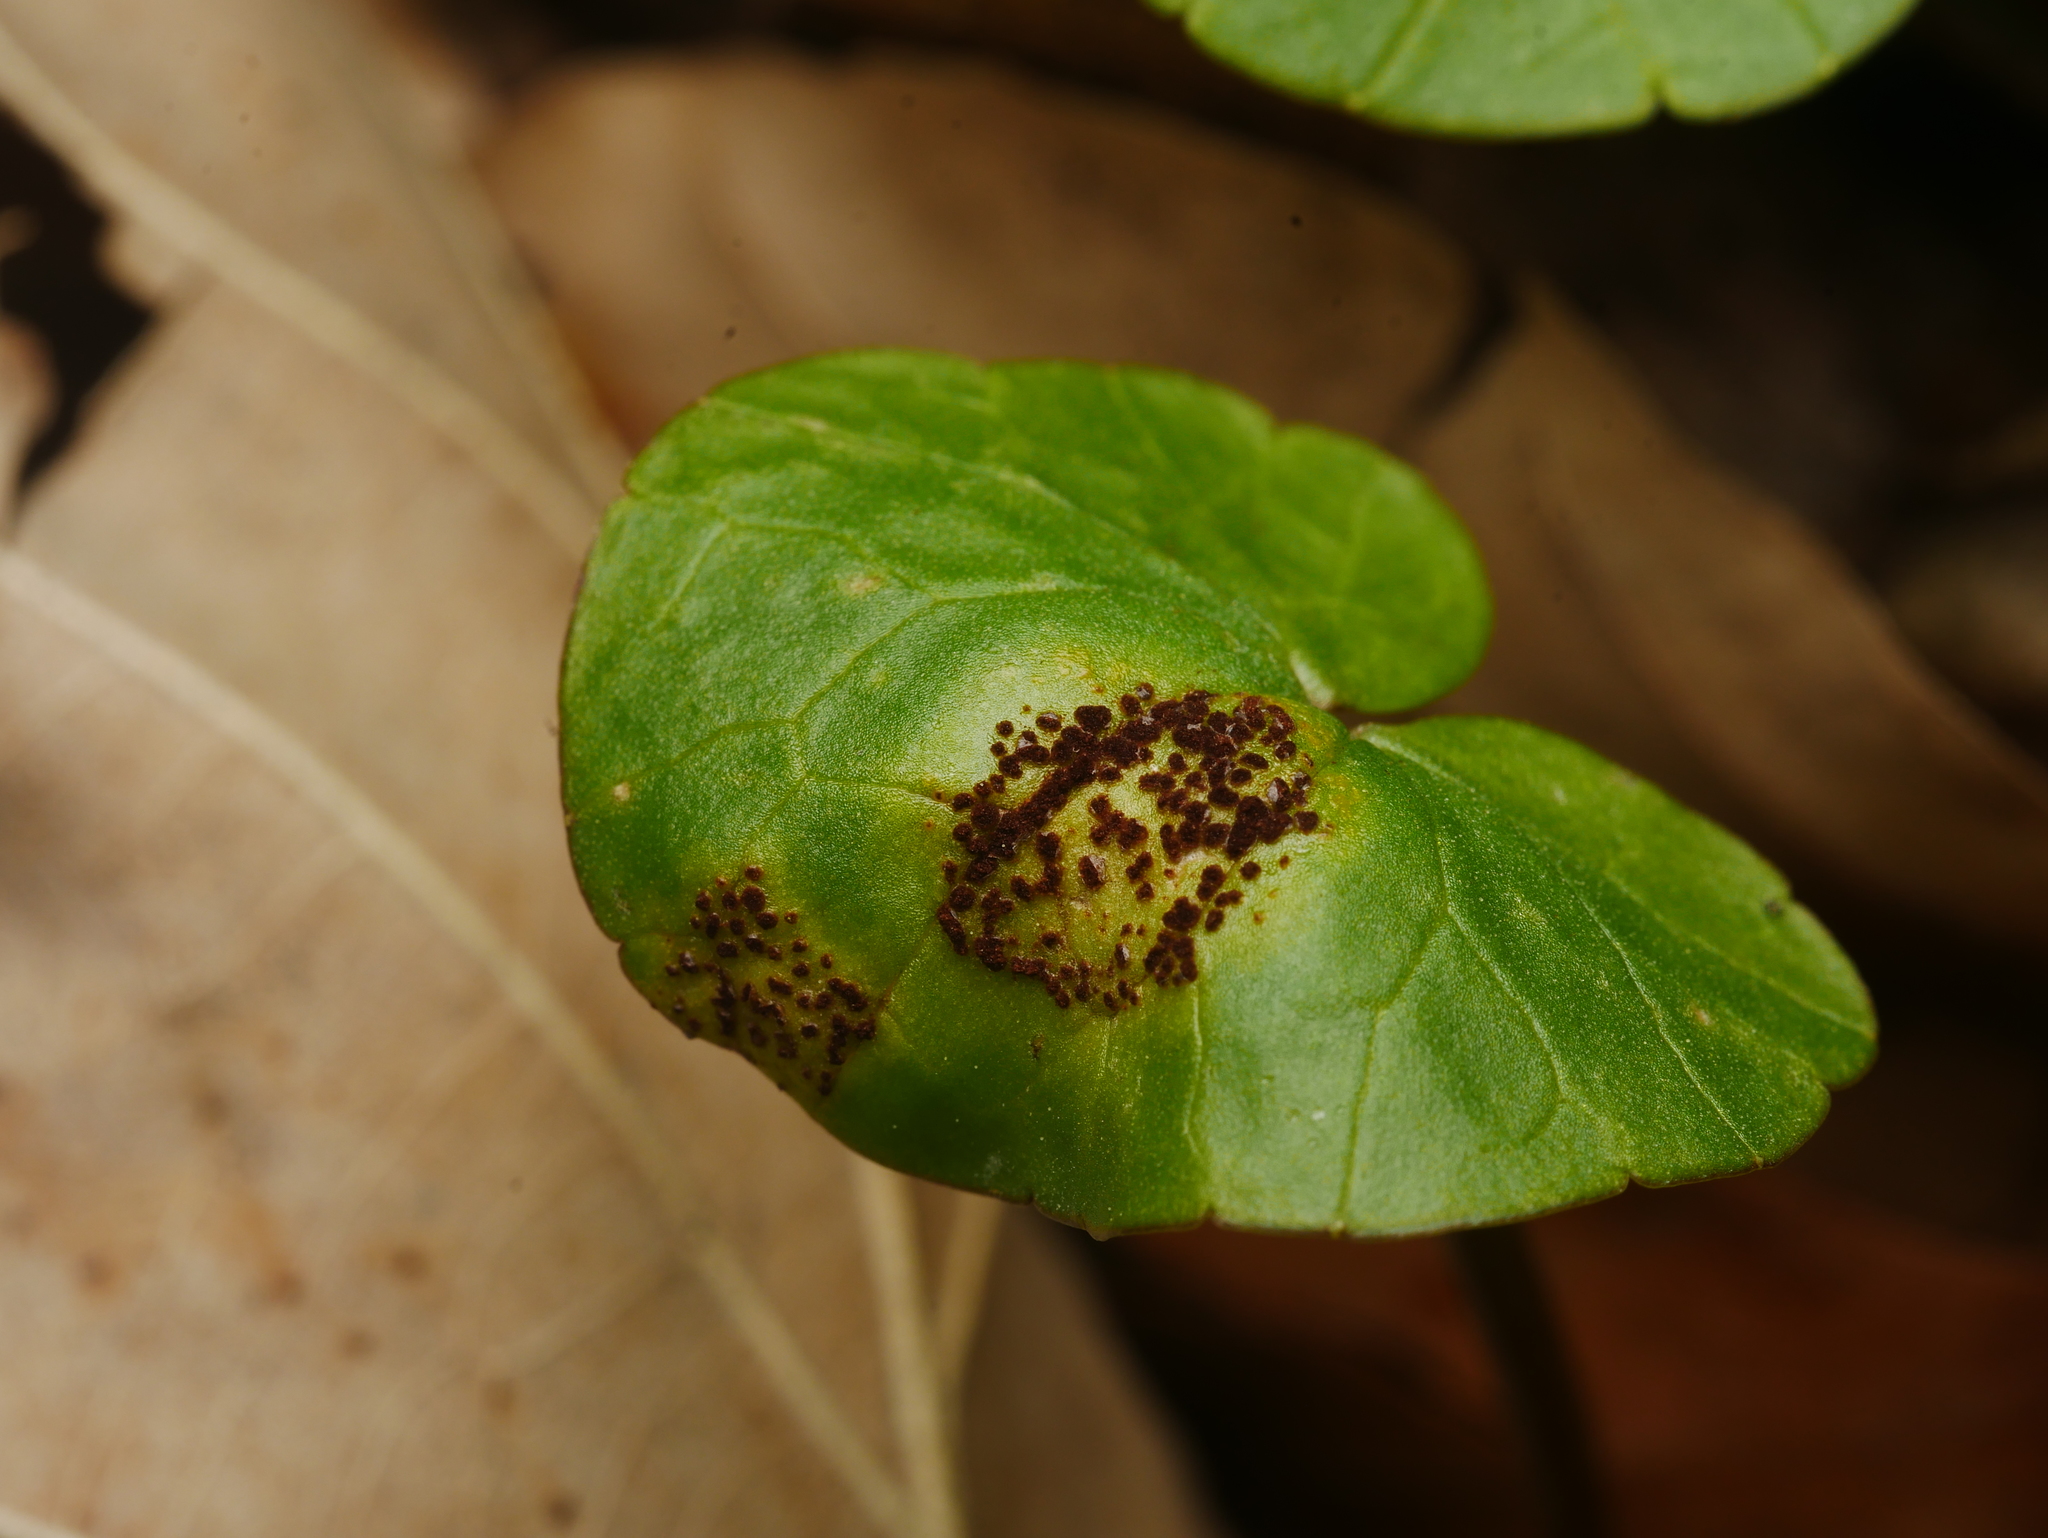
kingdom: Fungi
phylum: Basidiomycota
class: Pucciniomycetes
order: Pucciniales
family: Pucciniaceae
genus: Uromyces
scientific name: Uromyces ficariae
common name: Bitter chocolate rust
